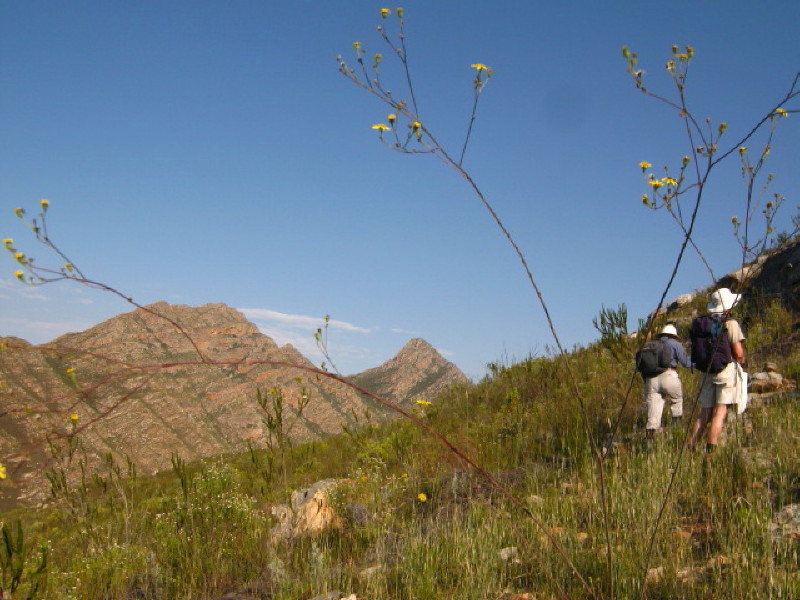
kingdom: Plantae
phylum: Tracheophyta
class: Magnoliopsida
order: Asterales
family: Asteraceae
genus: Othonna
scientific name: Othonna quinquedentata
